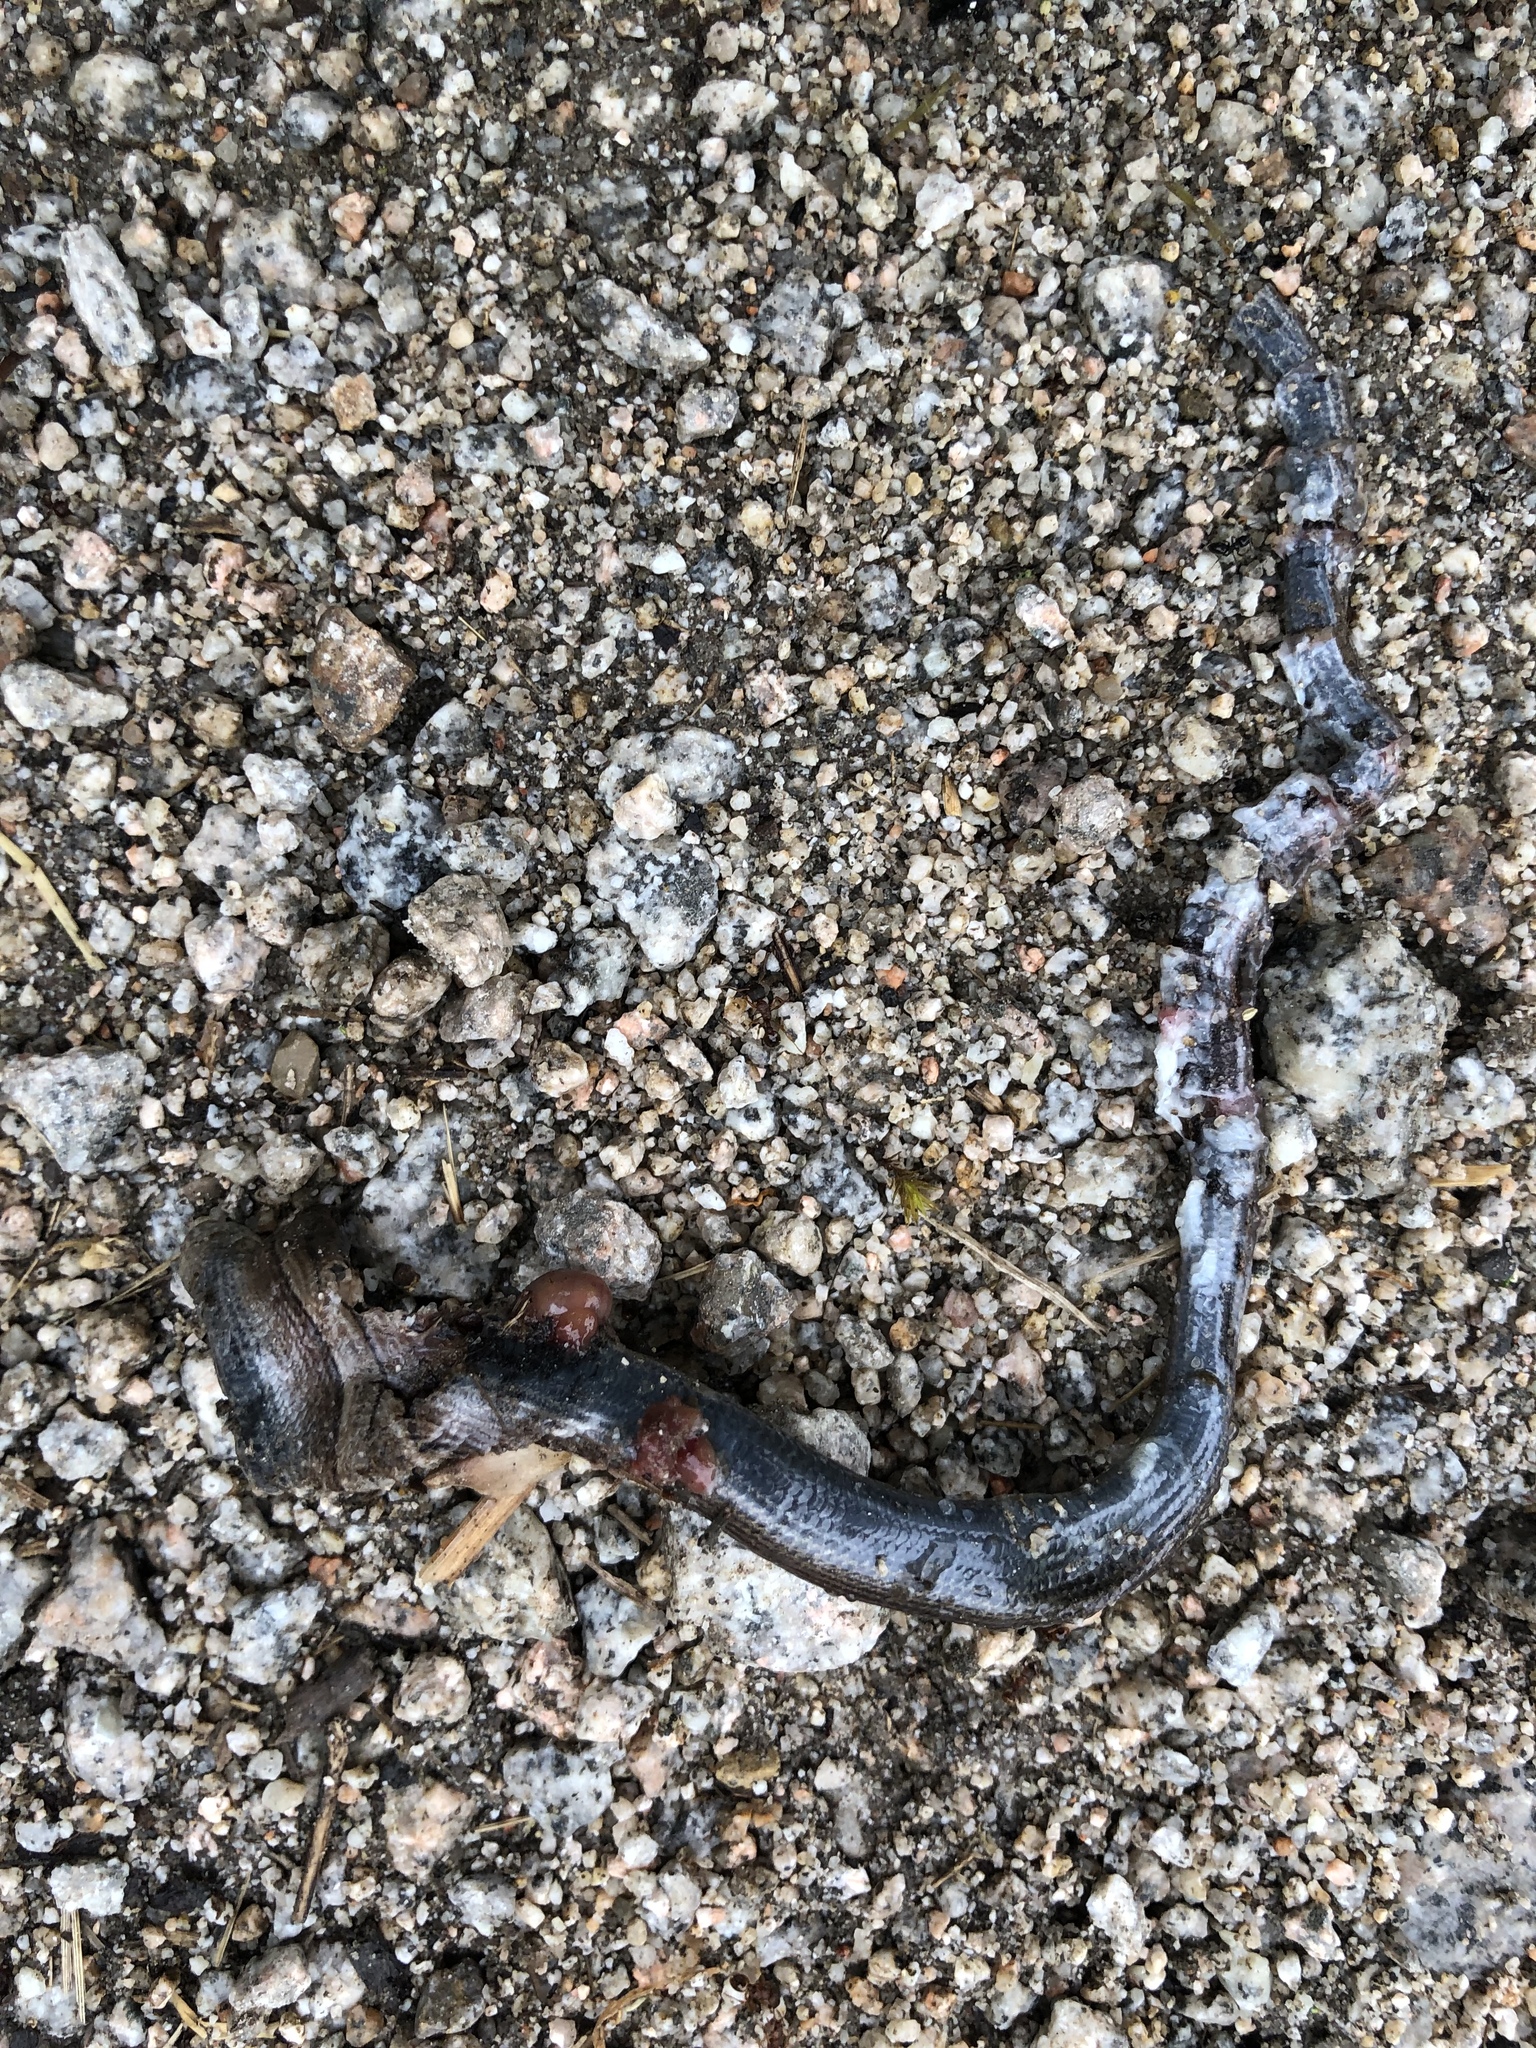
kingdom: Animalia
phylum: Chordata
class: Squamata
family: Anguidae
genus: Anguis
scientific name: Anguis fragilis
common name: Slow worm
